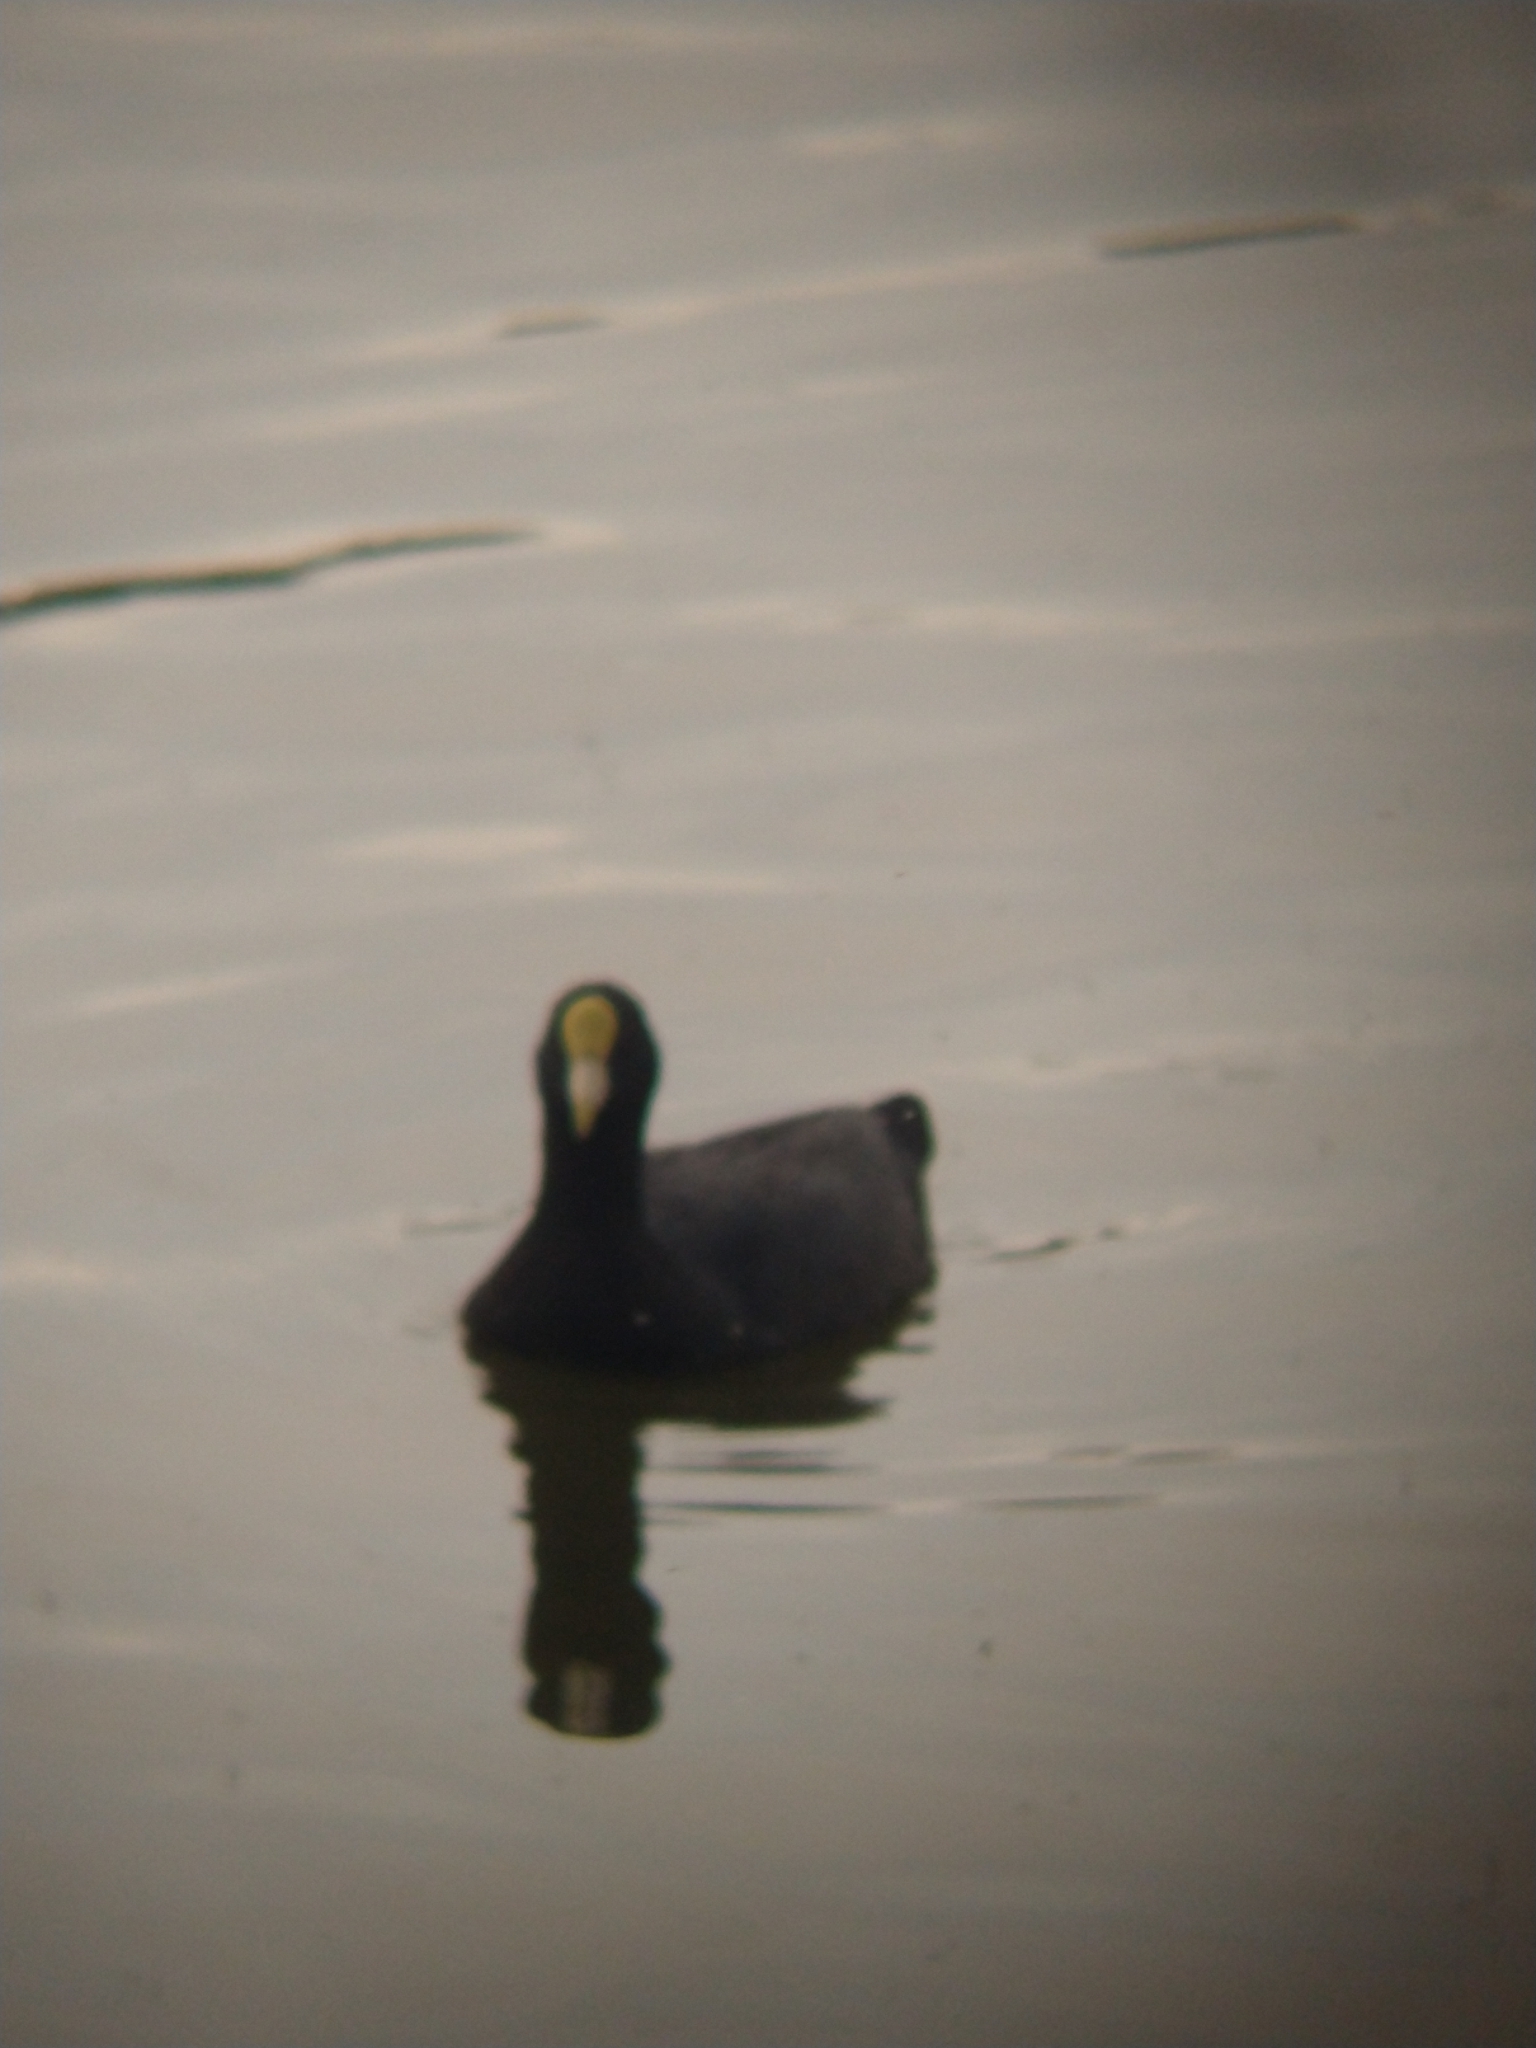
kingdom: Animalia
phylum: Chordata
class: Aves
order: Gruiformes
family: Rallidae
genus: Fulica
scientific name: Fulica leucoptera
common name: White-winged coot
